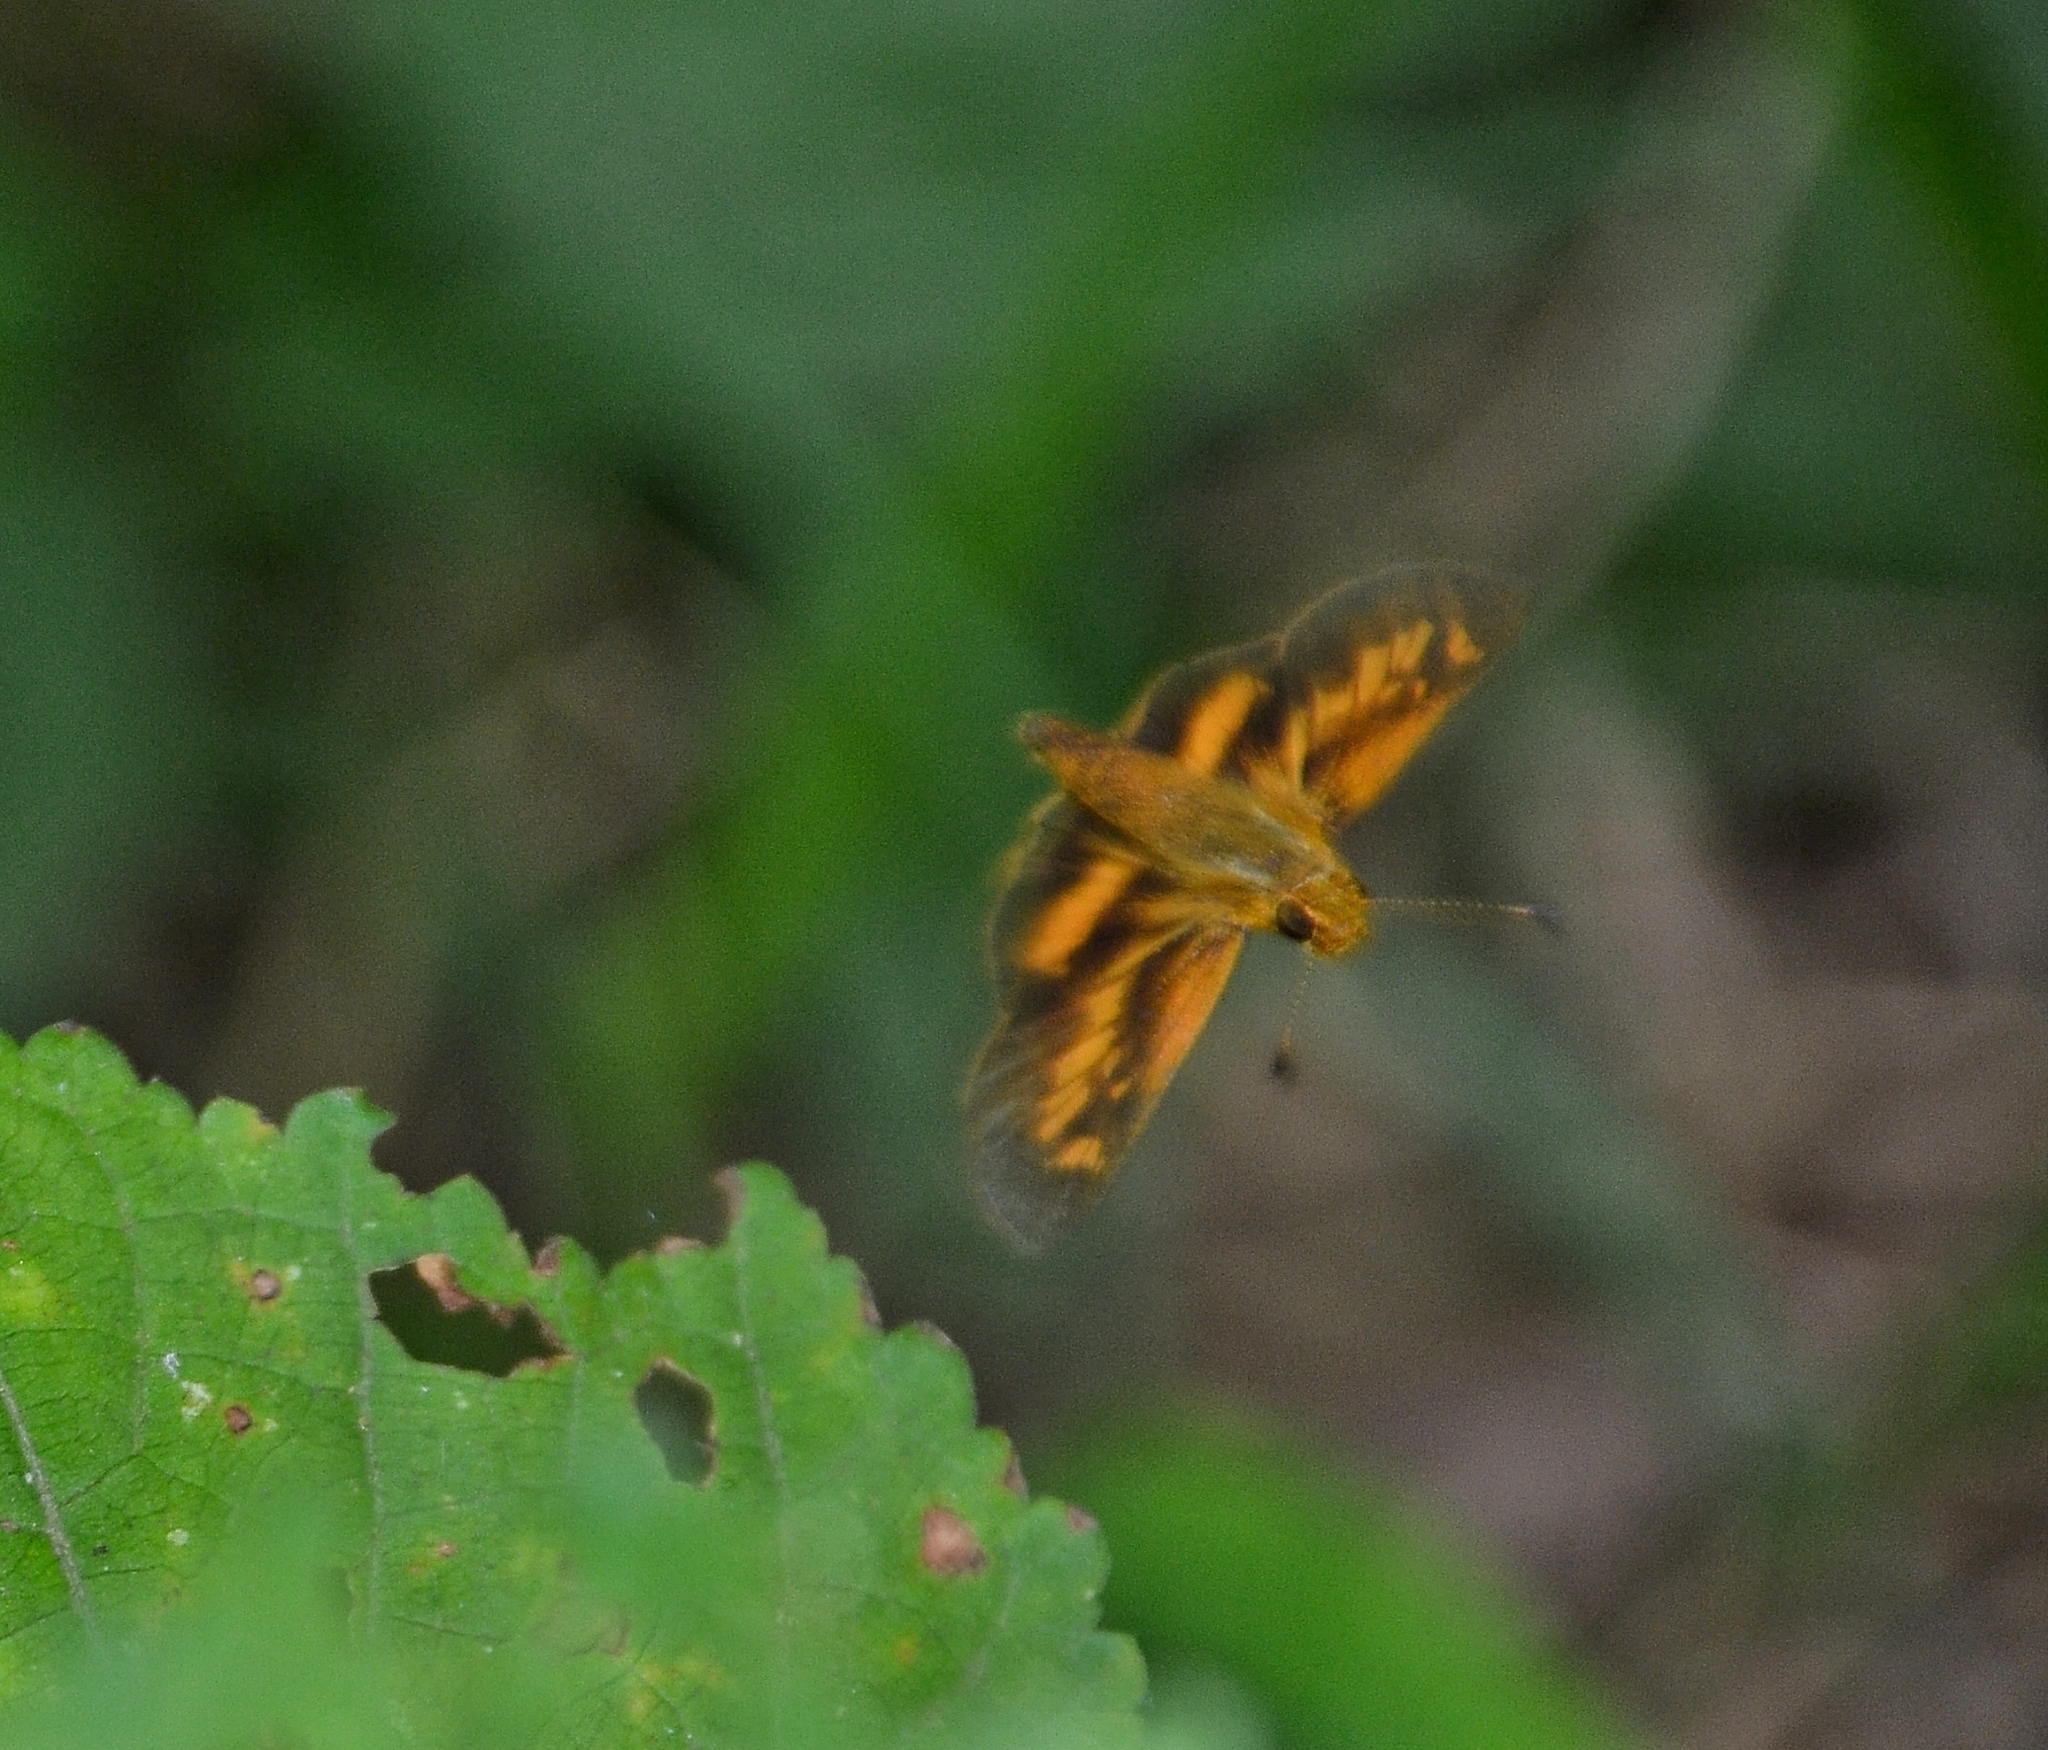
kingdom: Animalia
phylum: Arthropoda
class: Insecta
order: Lepidoptera
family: Hesperiidae
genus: Oriens
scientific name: Oriens goloides
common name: Smaller dartlet
